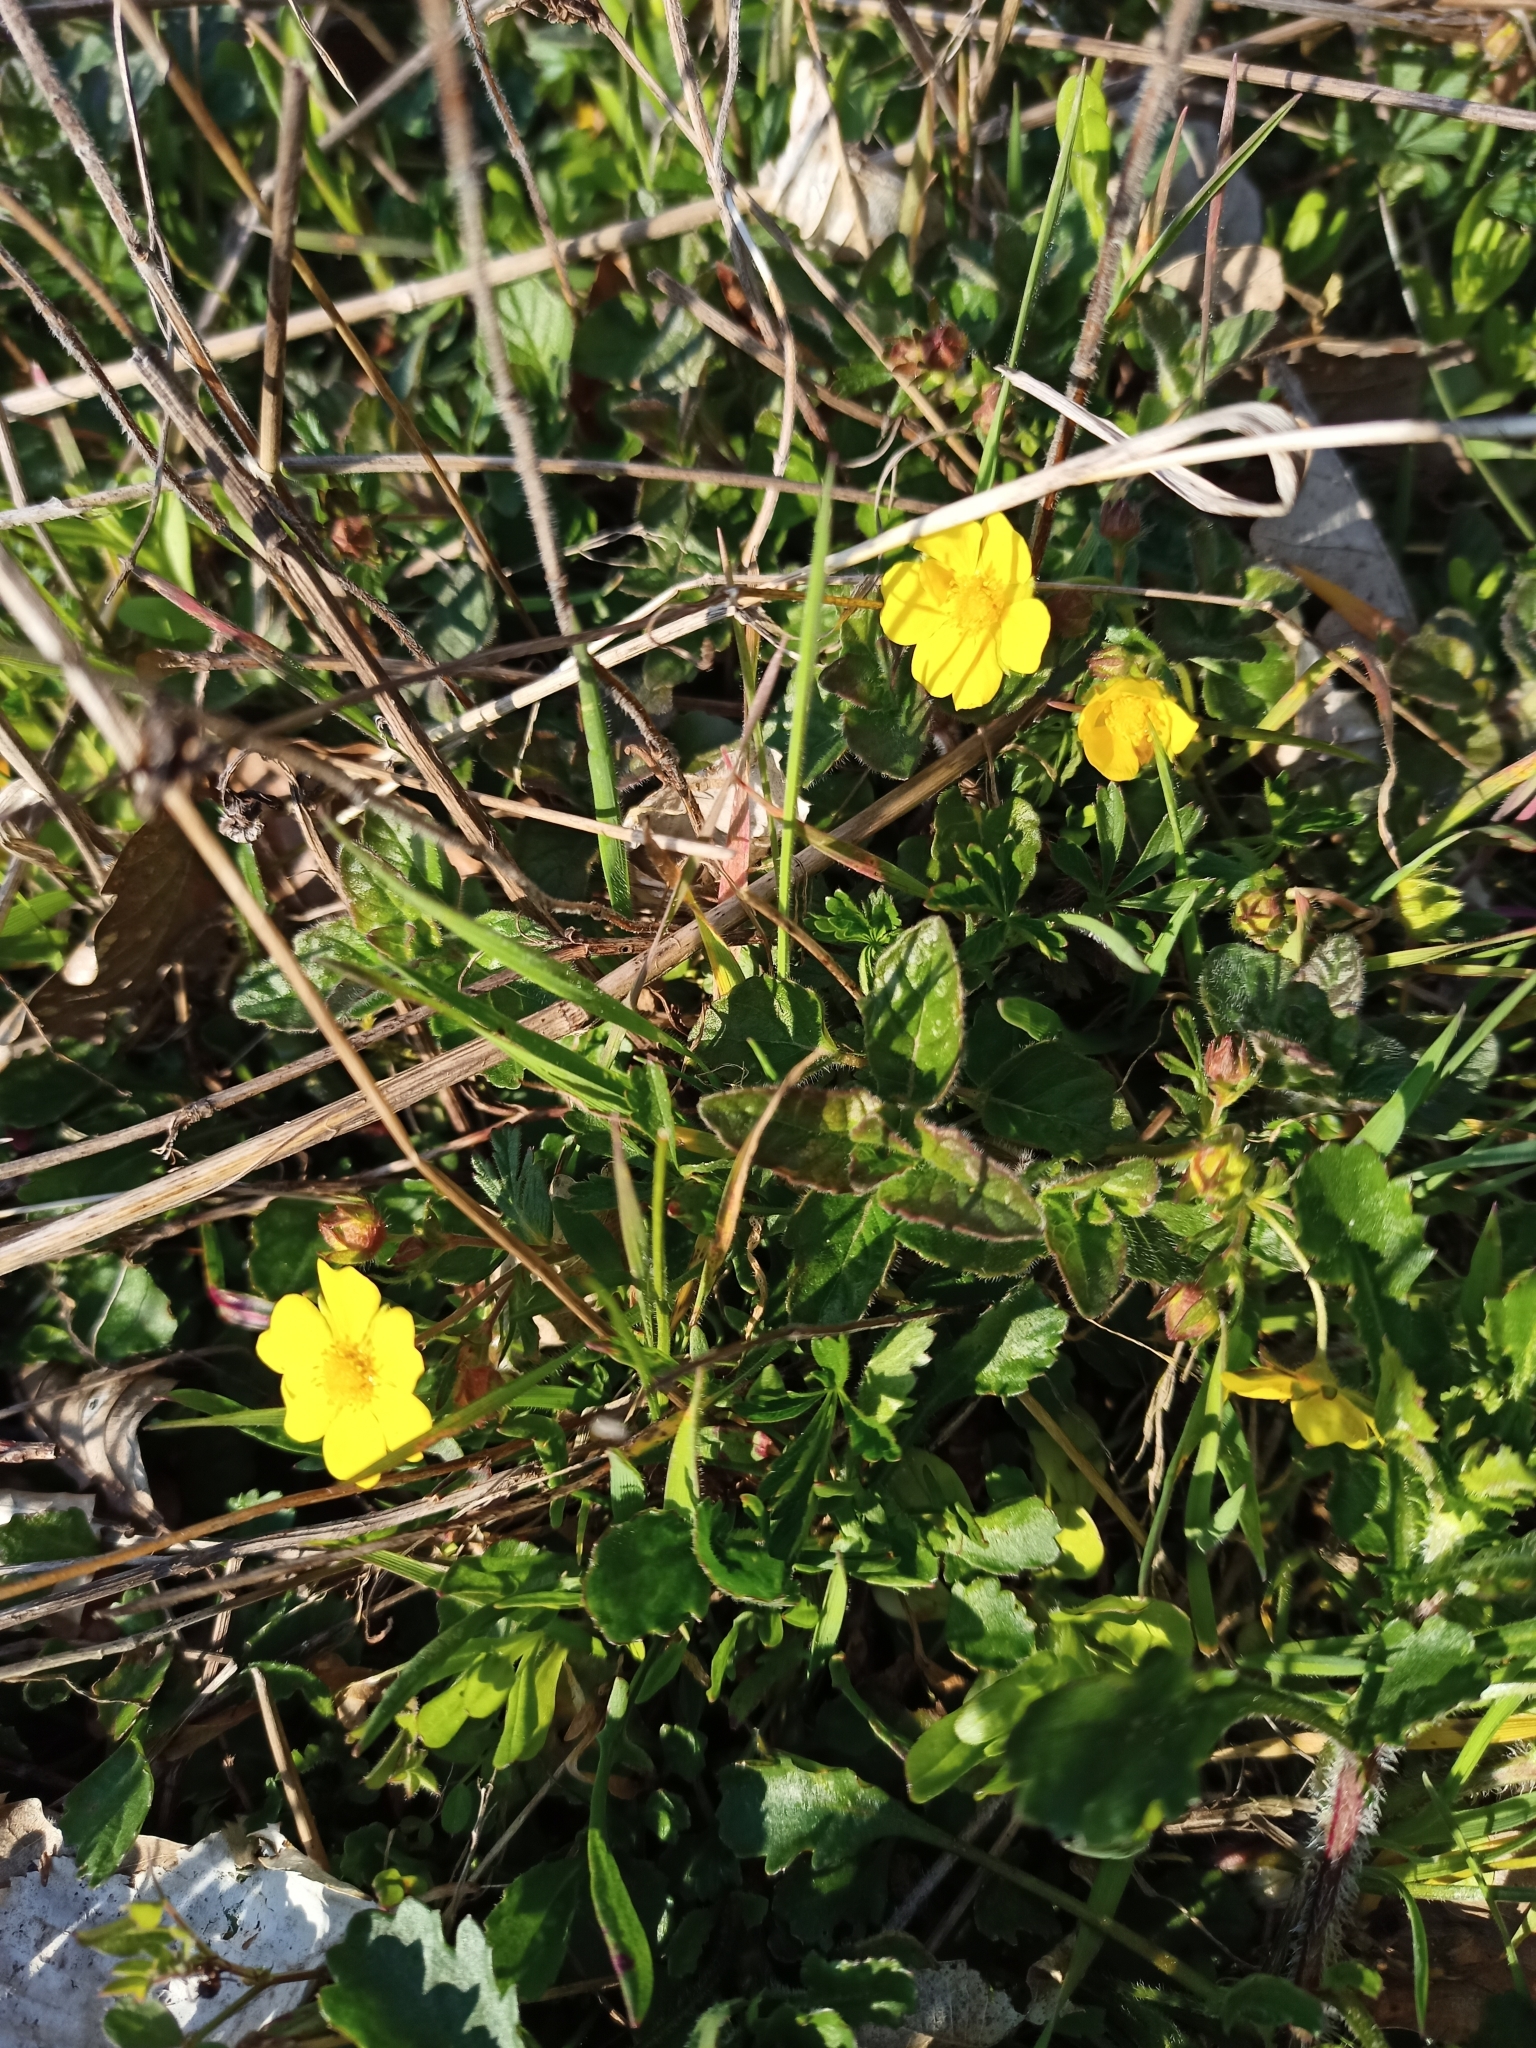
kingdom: Plantae
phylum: Tracheophyta
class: Magnoliopsida
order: Rosales
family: Rosaceae
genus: Potentilla
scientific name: Potentilla verna
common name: Spring cinquefoil
